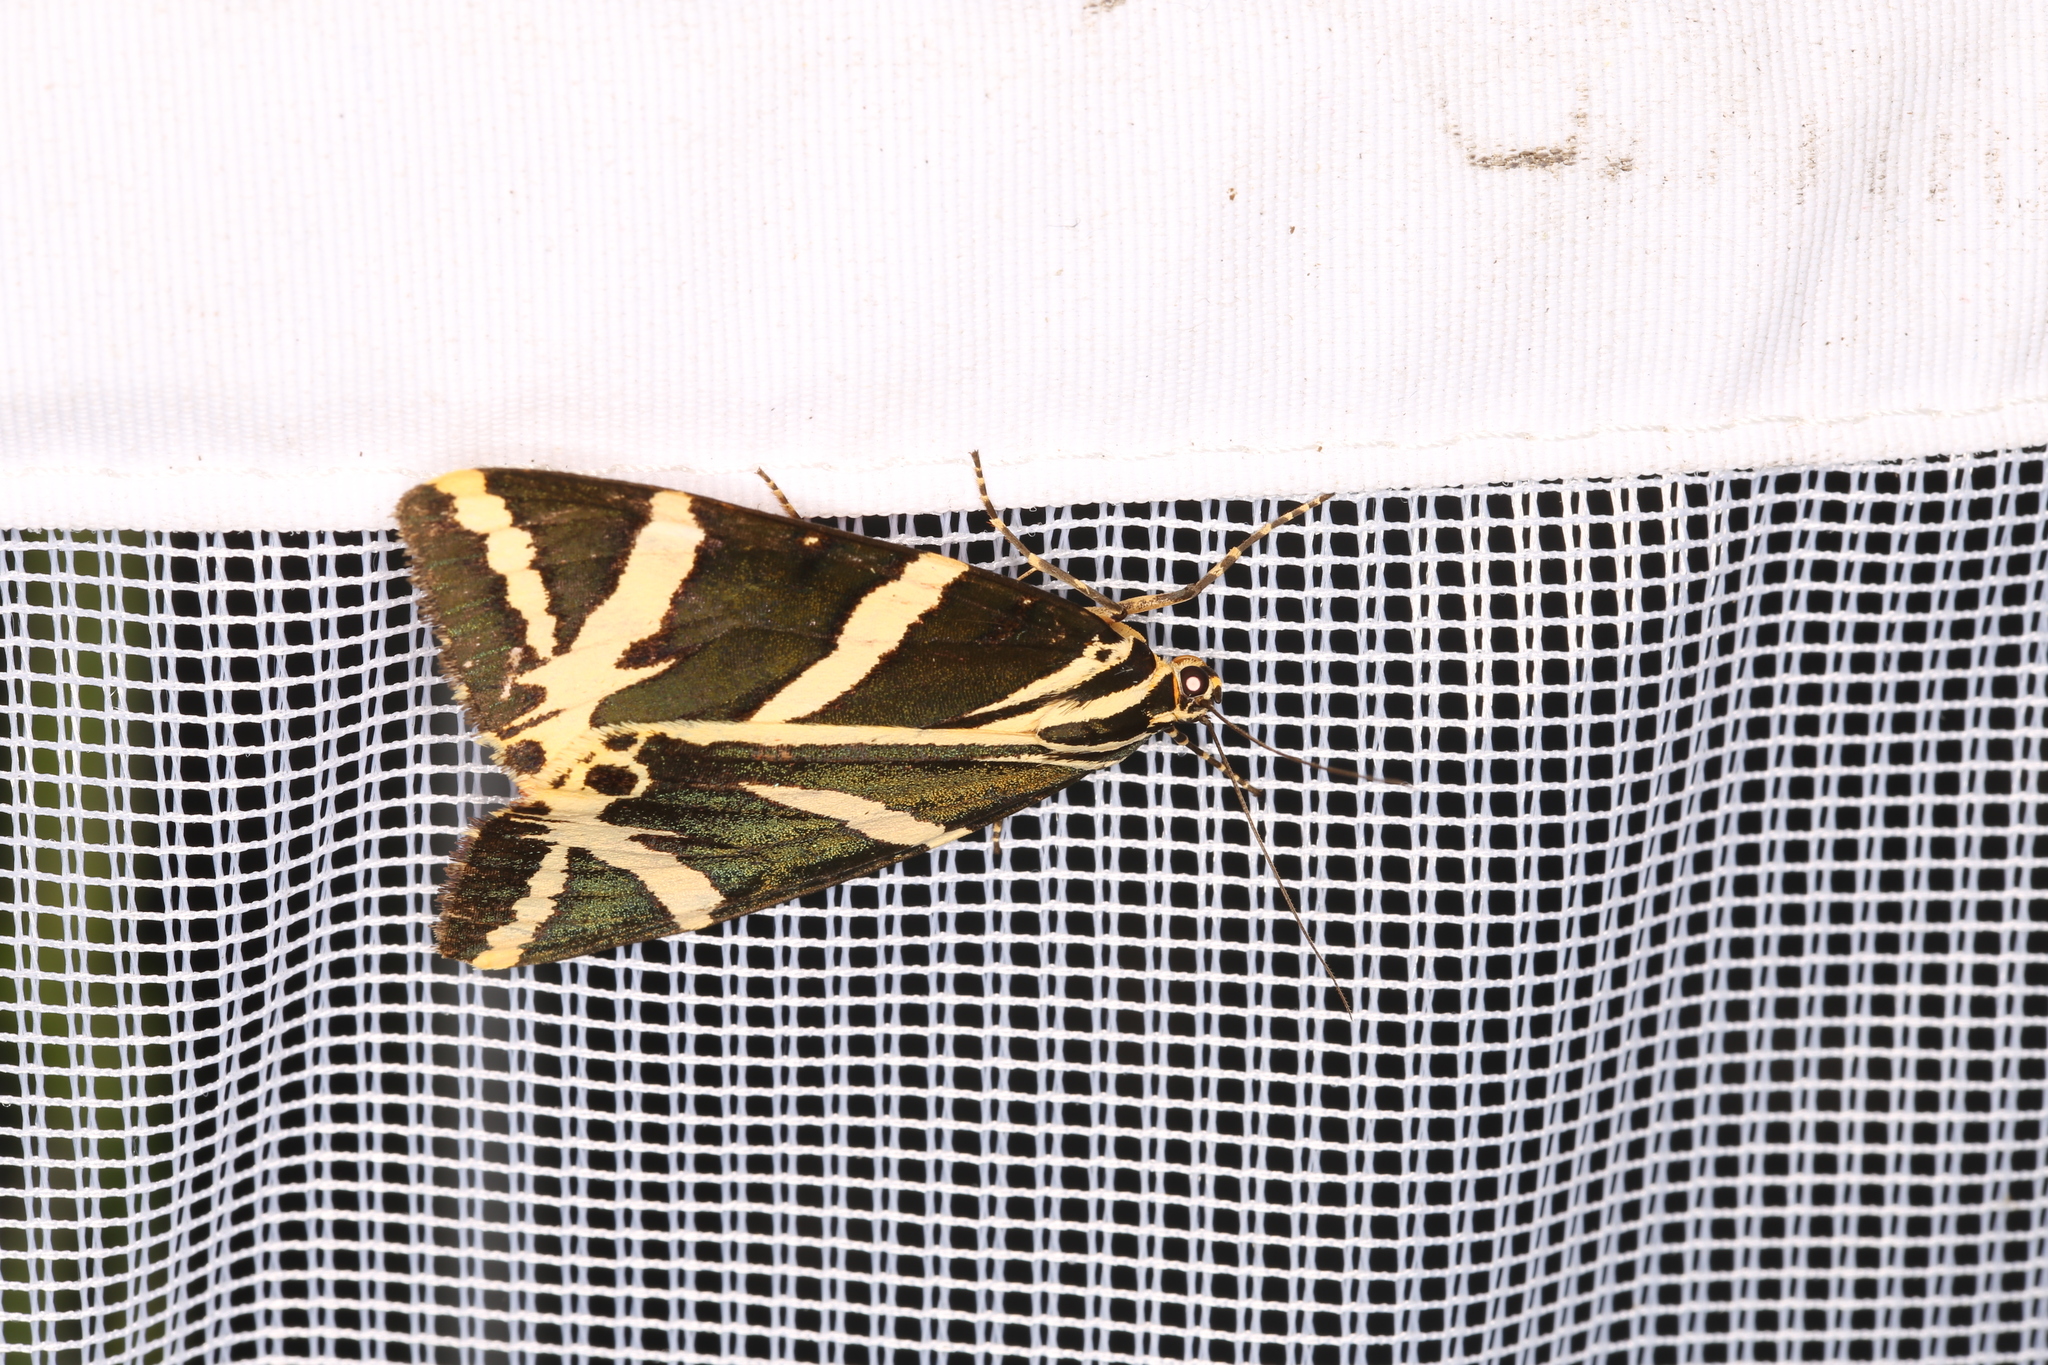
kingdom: Animalia
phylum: Arthropoda
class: Insecta
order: Lepidoptera
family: Erebidae
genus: Euplagia
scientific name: Euplagia quadripunctaria
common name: Jersey tiger
